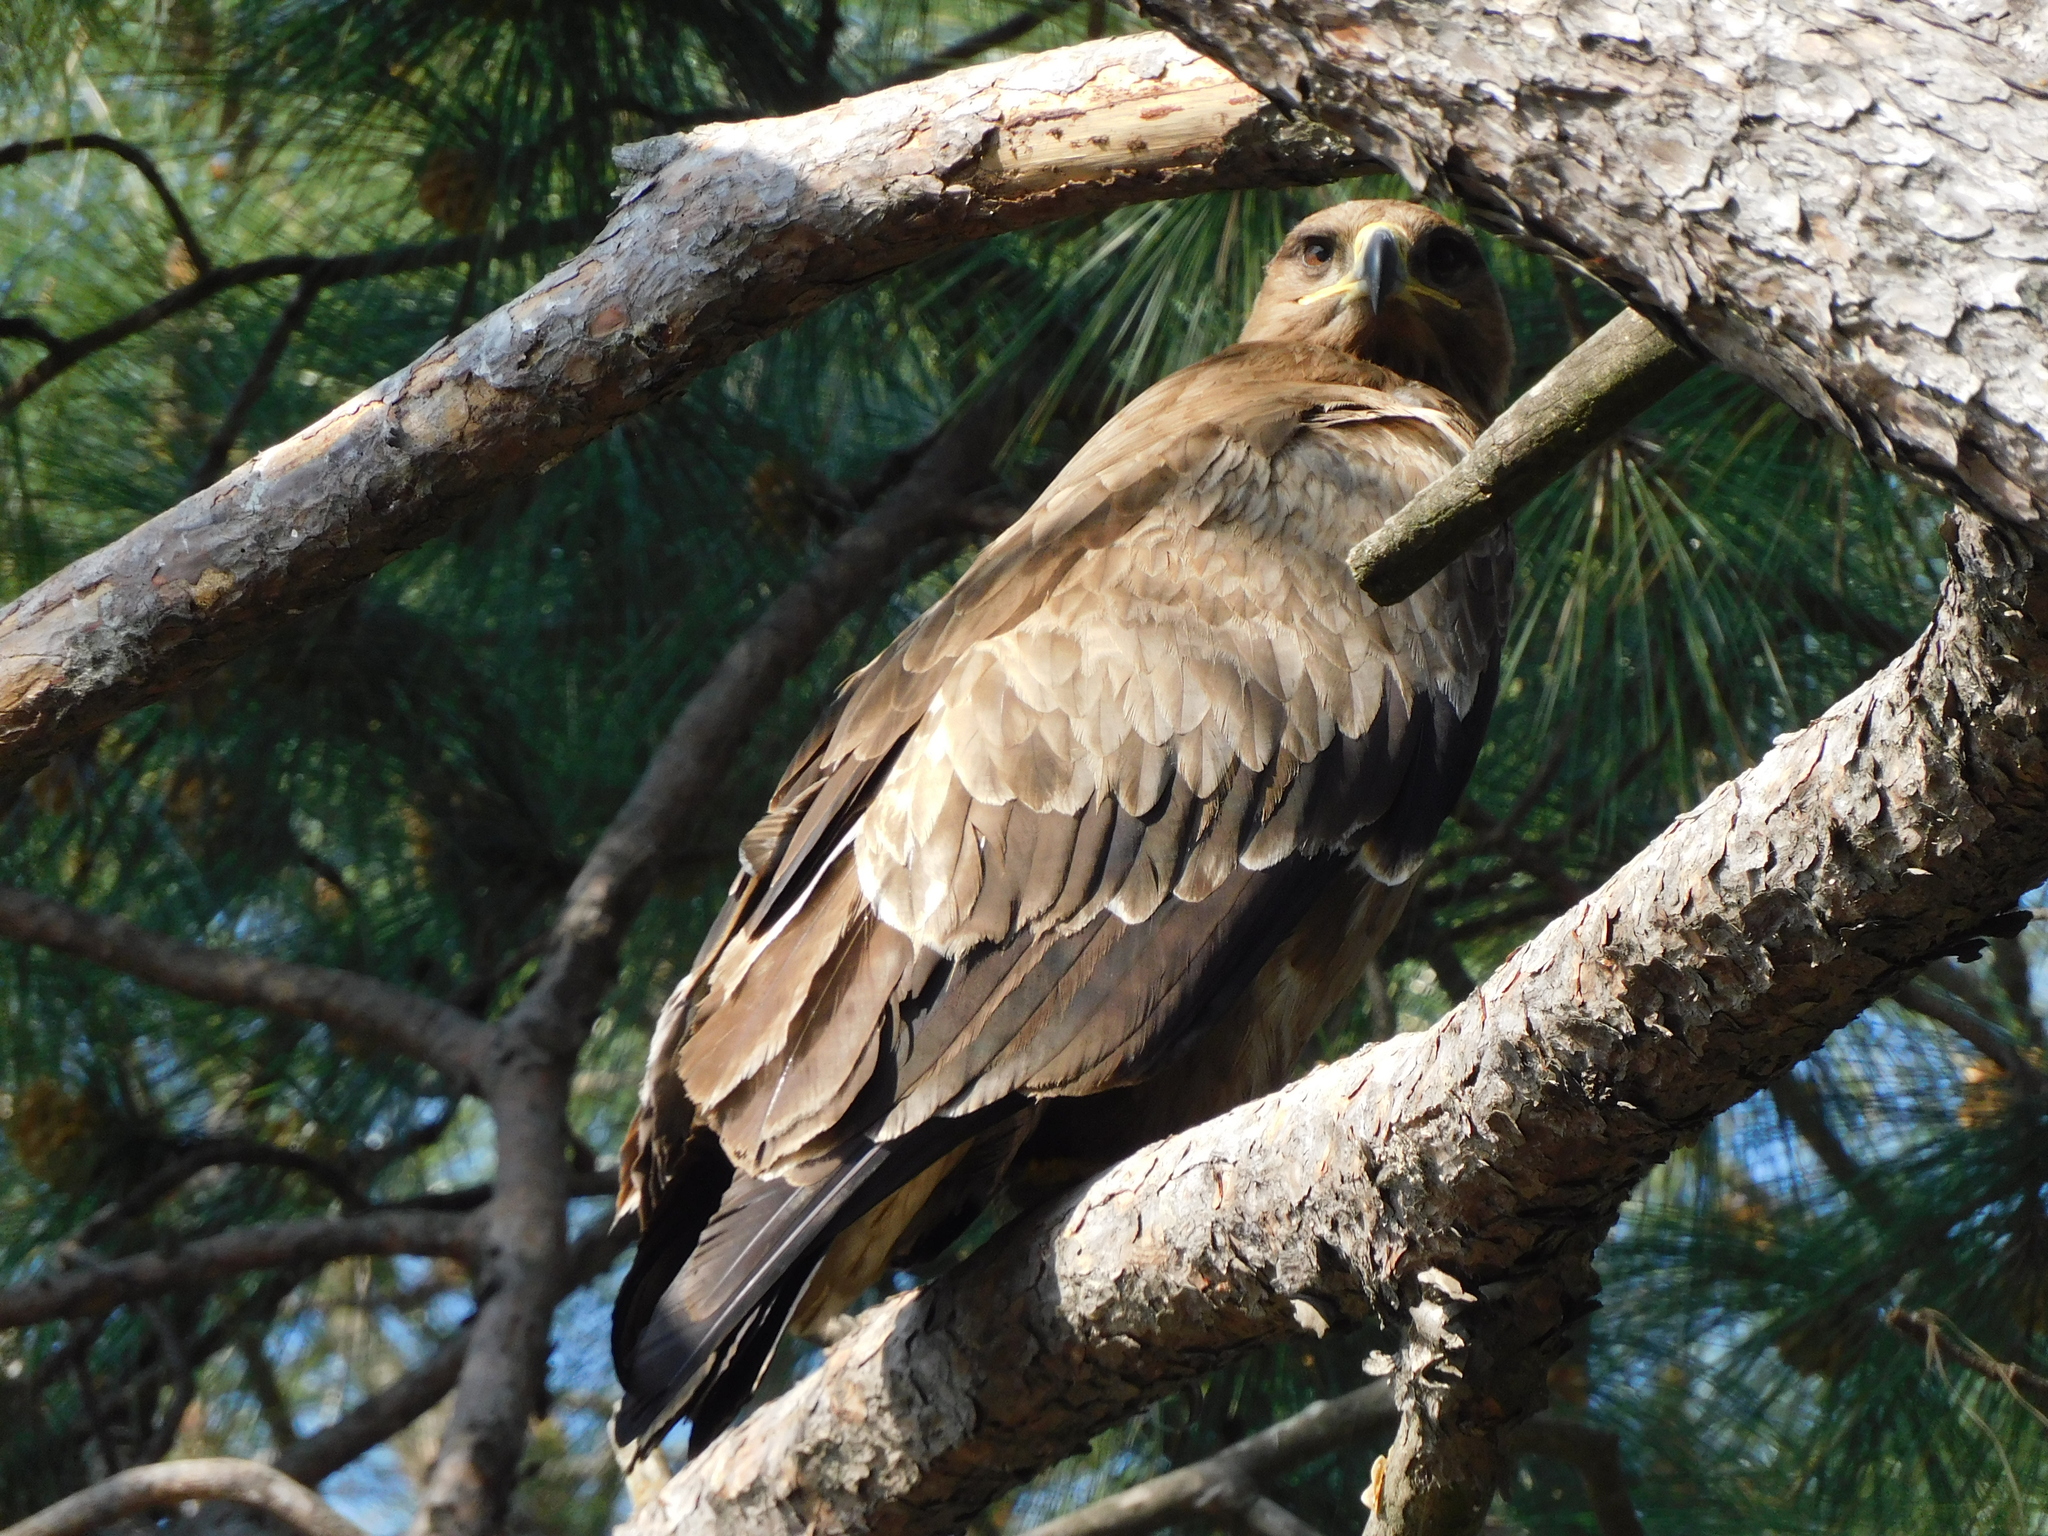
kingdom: Animalia
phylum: Chordata
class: Aves
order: Accipitriformes
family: Accipitridae
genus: Aquila
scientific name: Aquila nipalensis
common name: Steppe eagle
